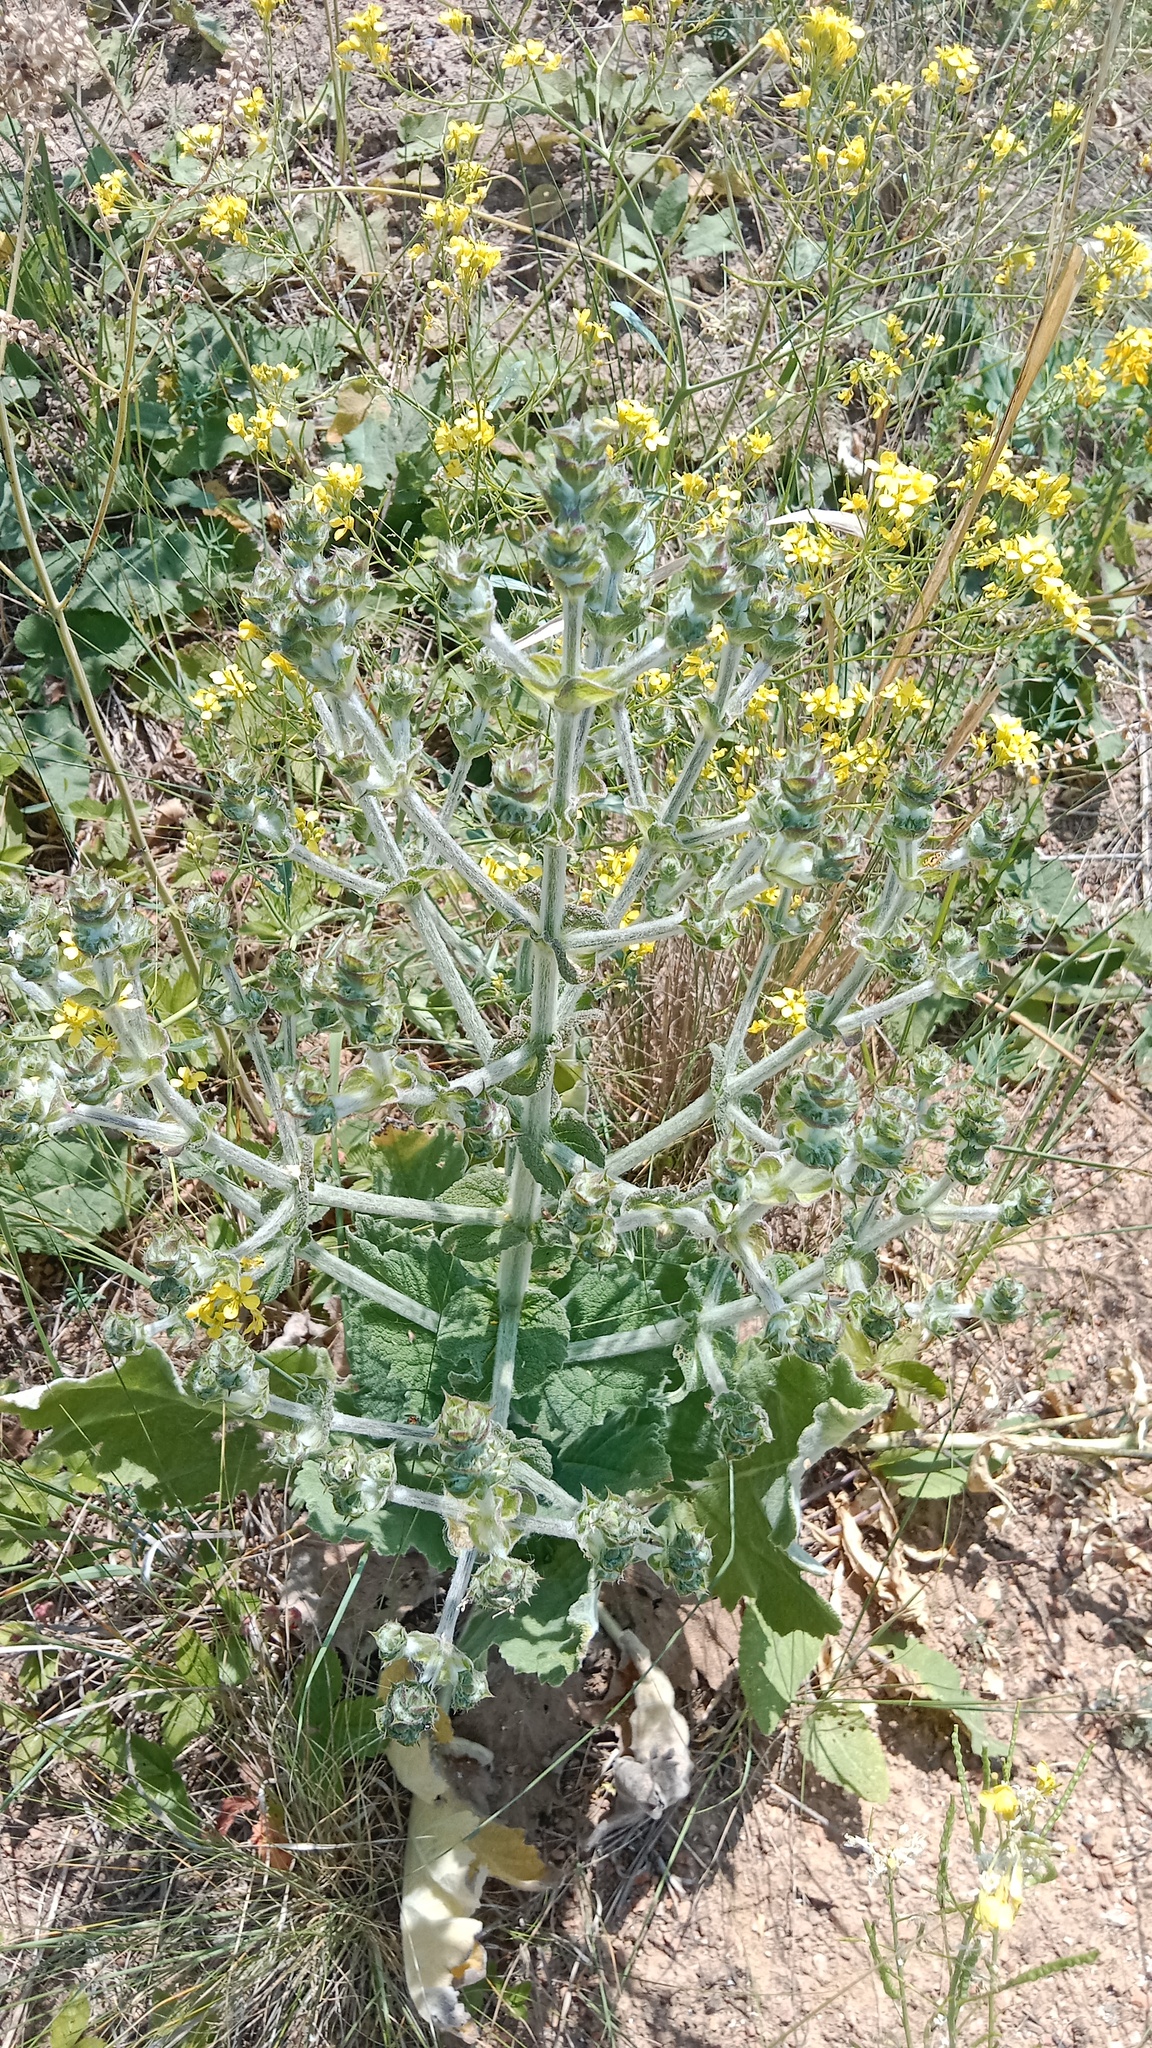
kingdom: Plantae
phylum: Tracheophyta
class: Magnoliopsida
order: Lamiales
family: Lamiaceae
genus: Salvia
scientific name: Salvia aethiopis
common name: Mediterranean sage
